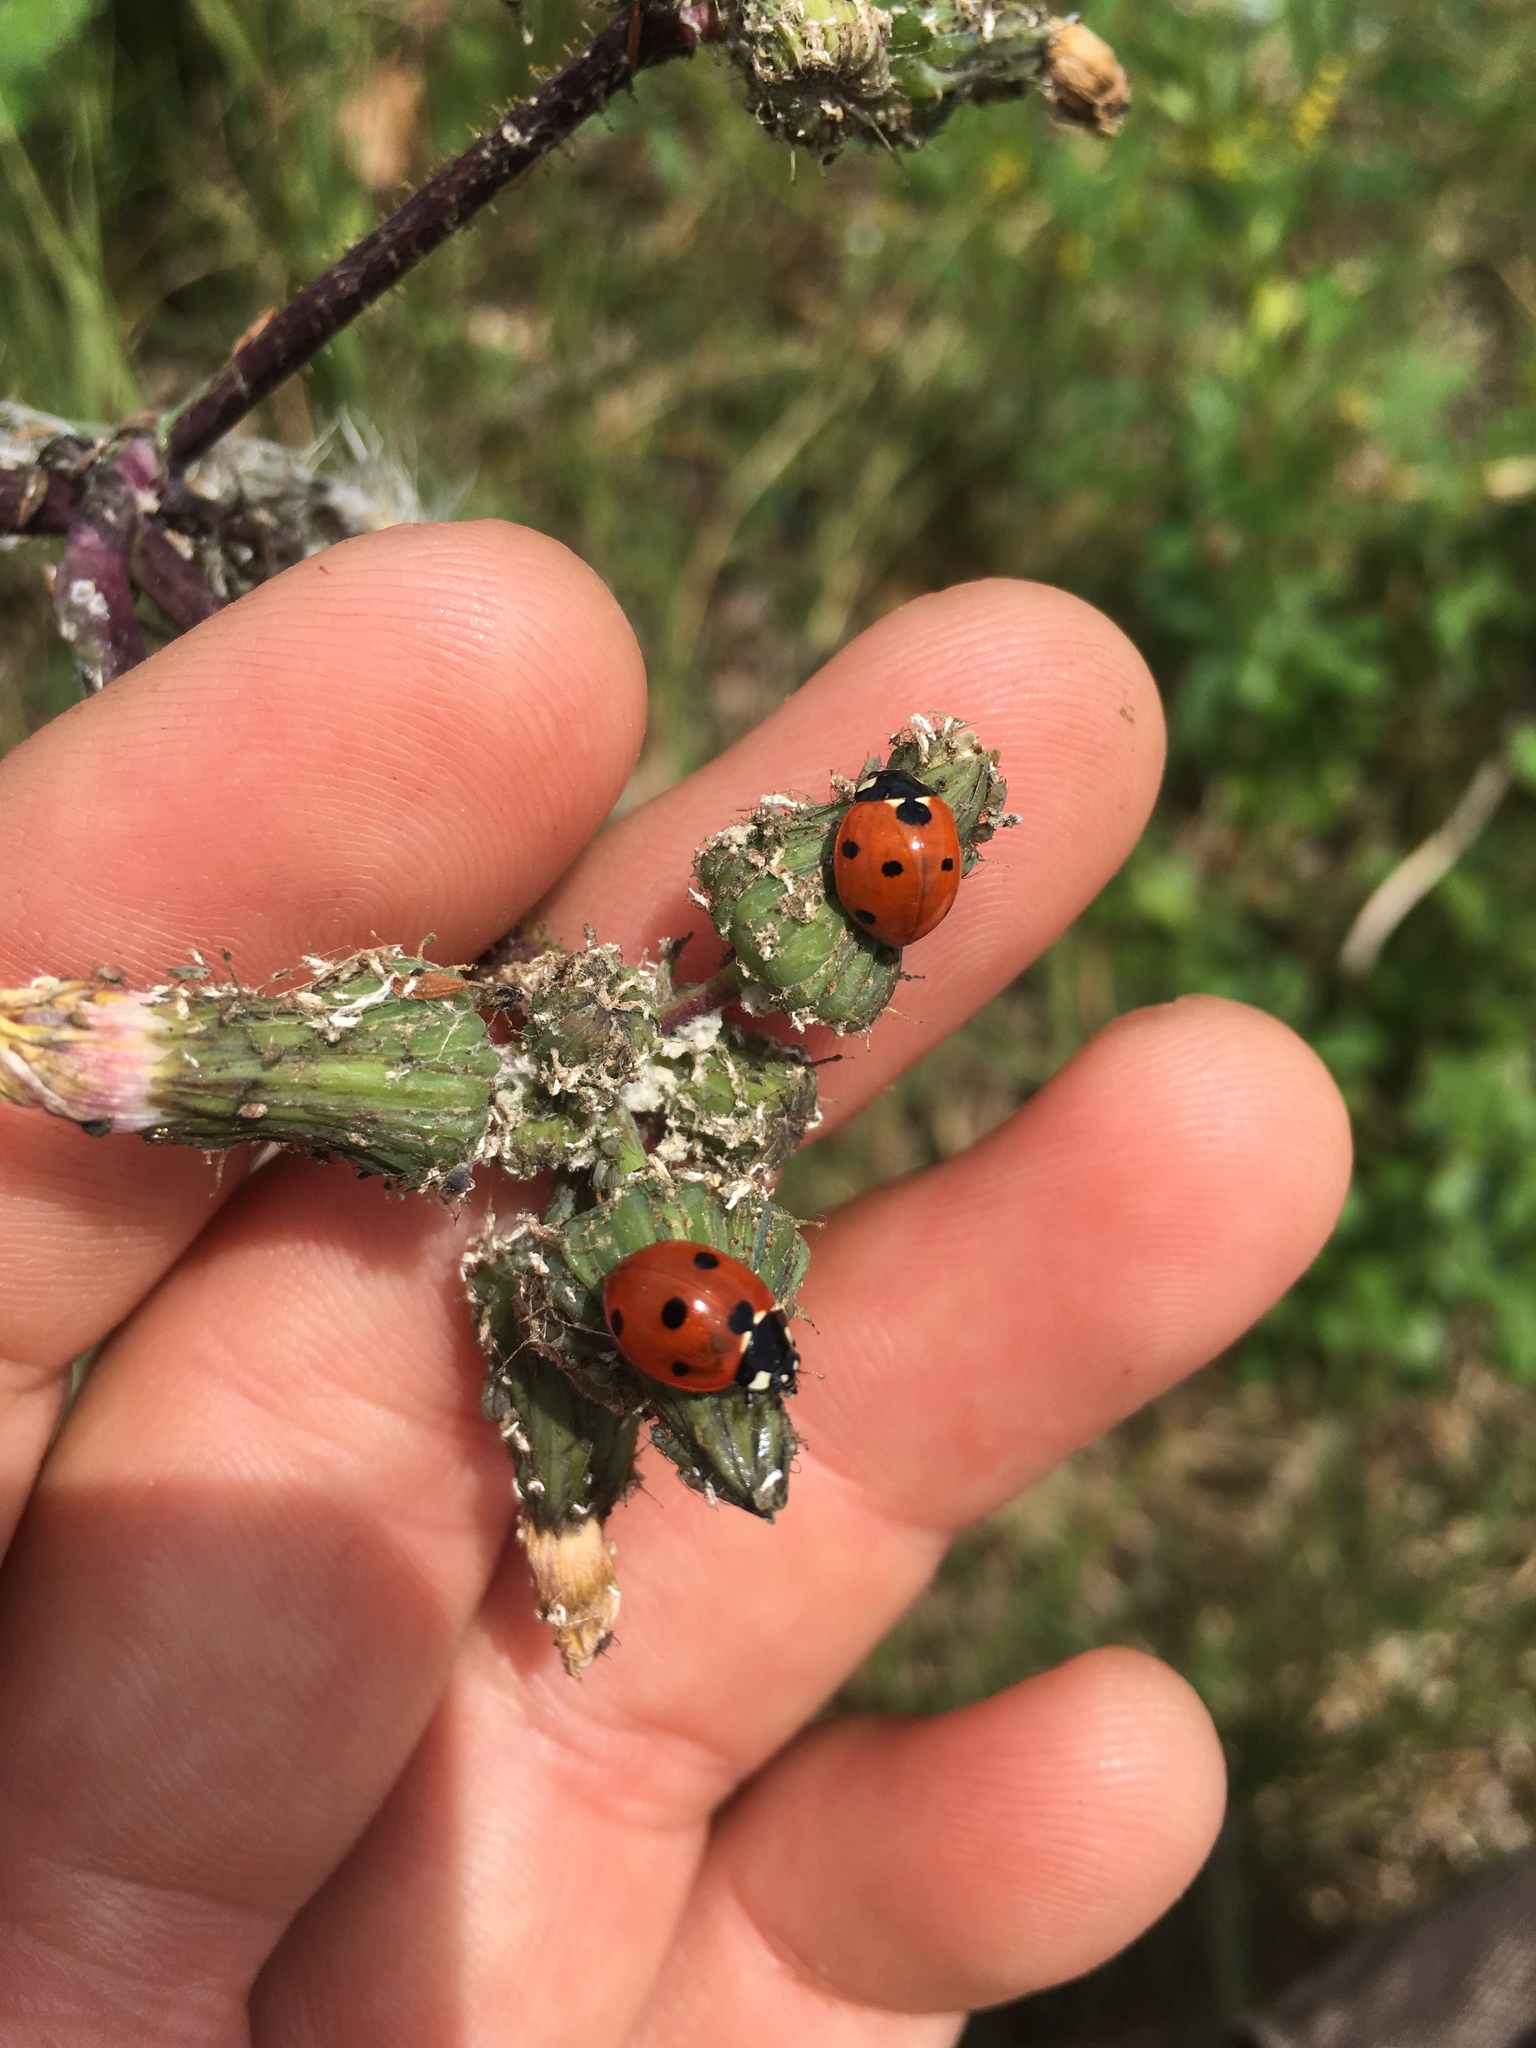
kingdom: Animalia
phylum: Arthropoda
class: Insecta
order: Coleoptera
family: Coccinellidae
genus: Coccinella
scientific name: Coccinella septempunctata
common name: Sevenspotted lady beetle
